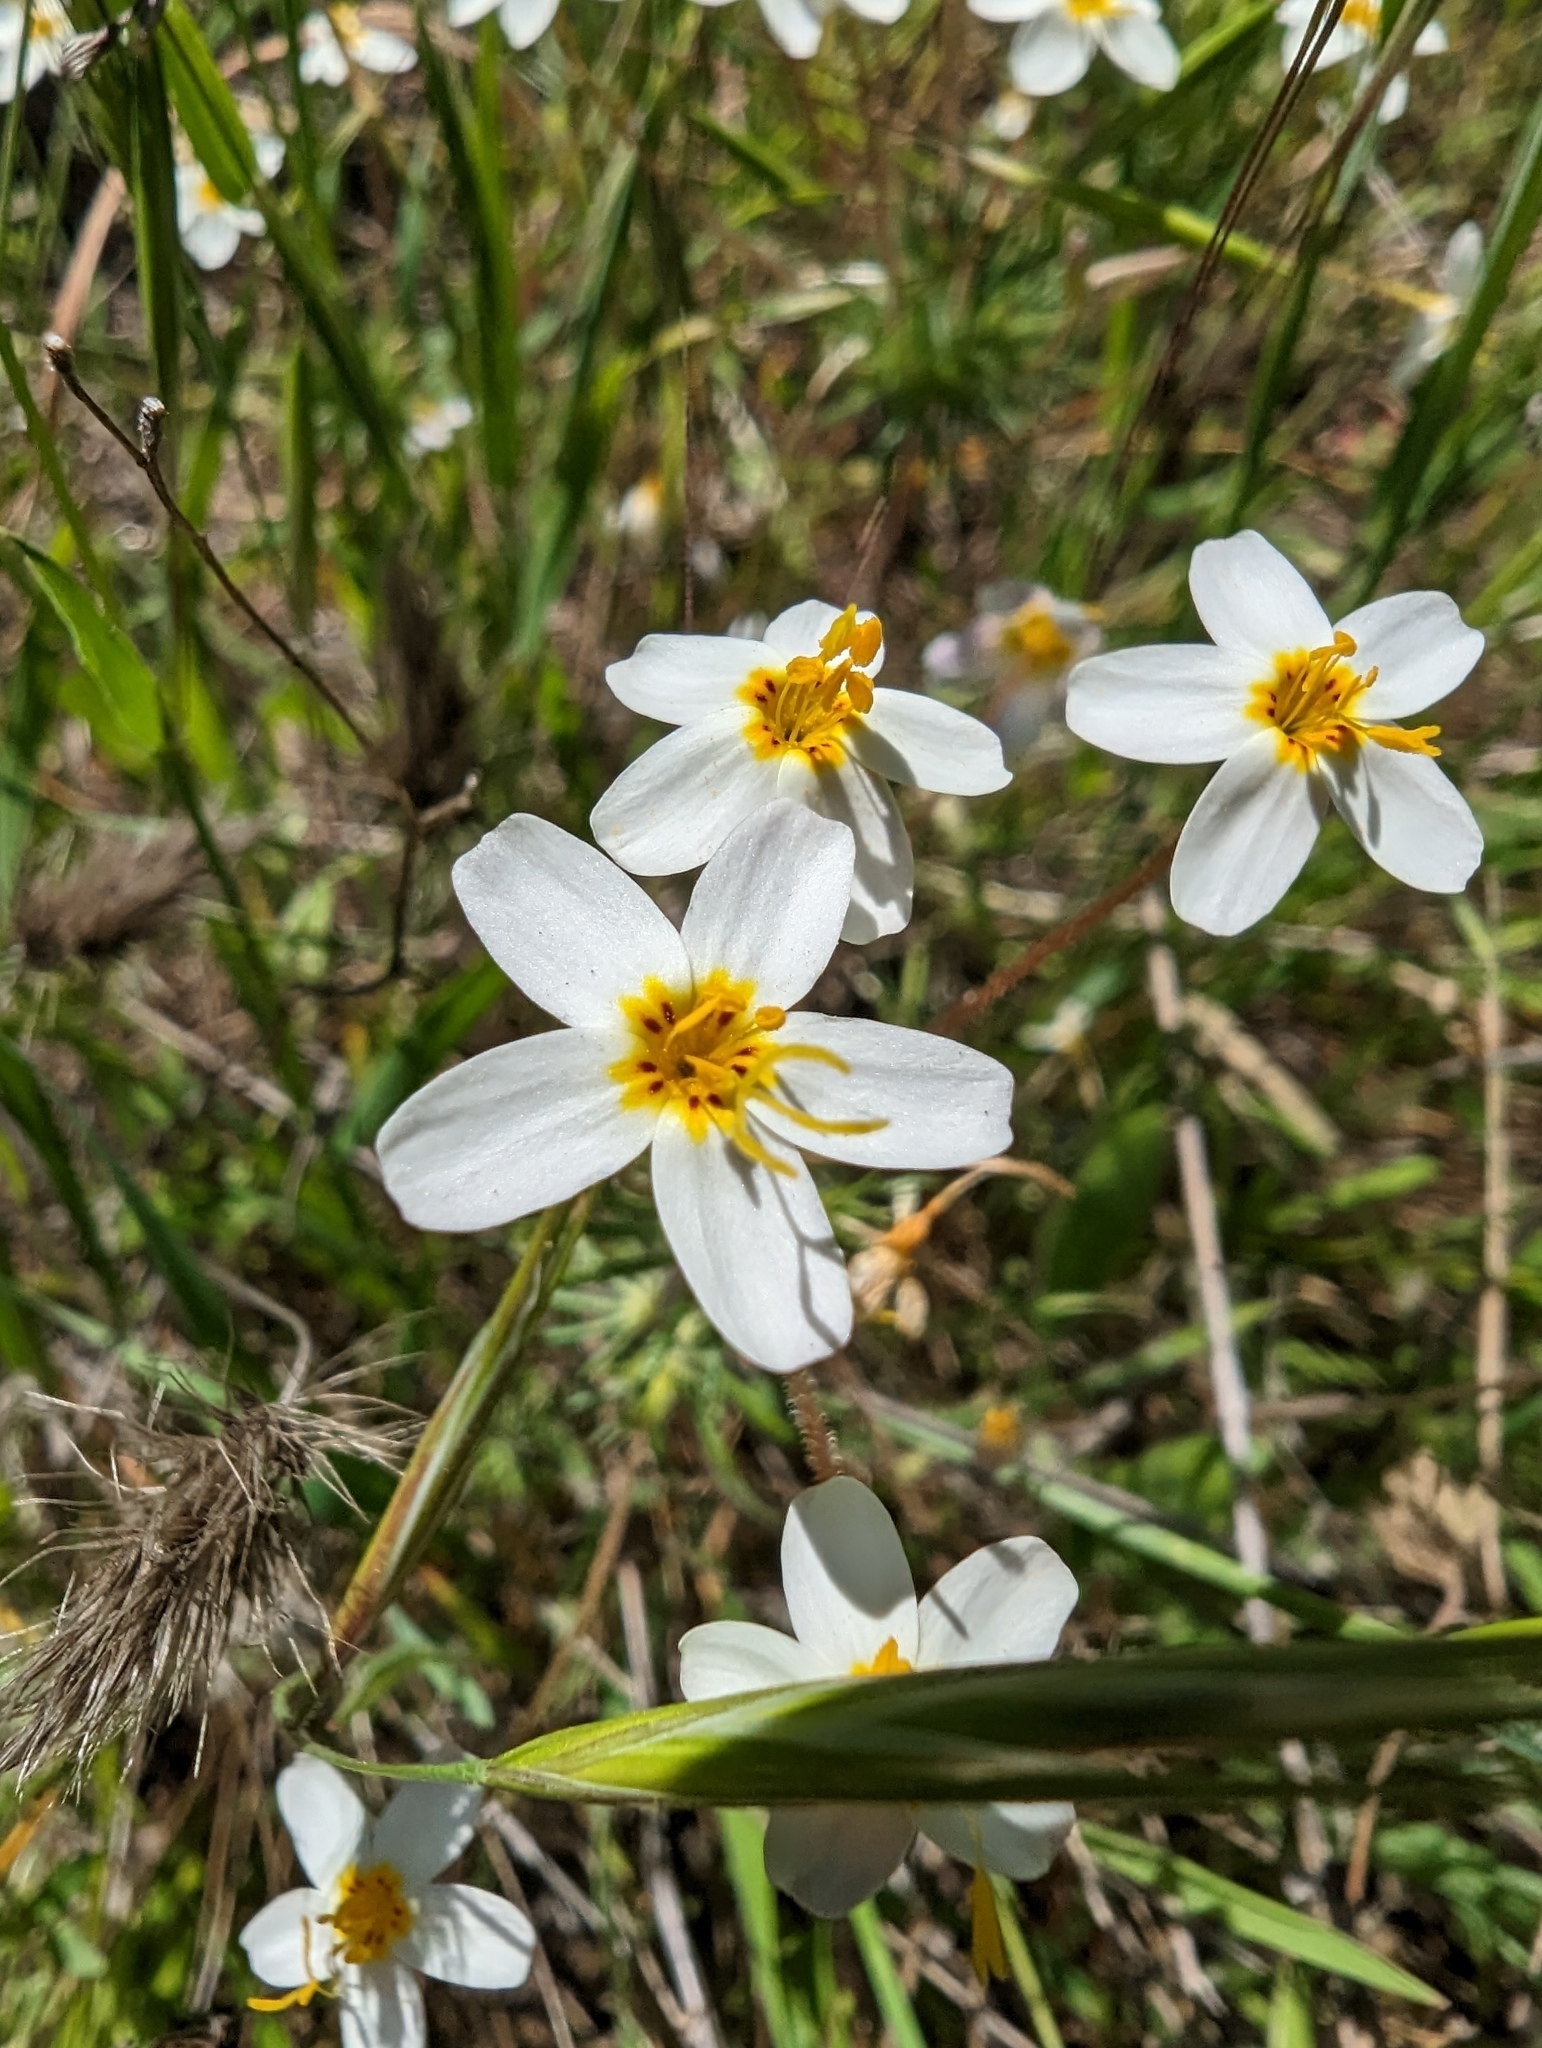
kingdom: Plantae
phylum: Tracheophyta
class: Magnoliopsida
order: Ericales
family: Polemoniaceae
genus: Leptosiphon
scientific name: Leptosiphon parviflorus
